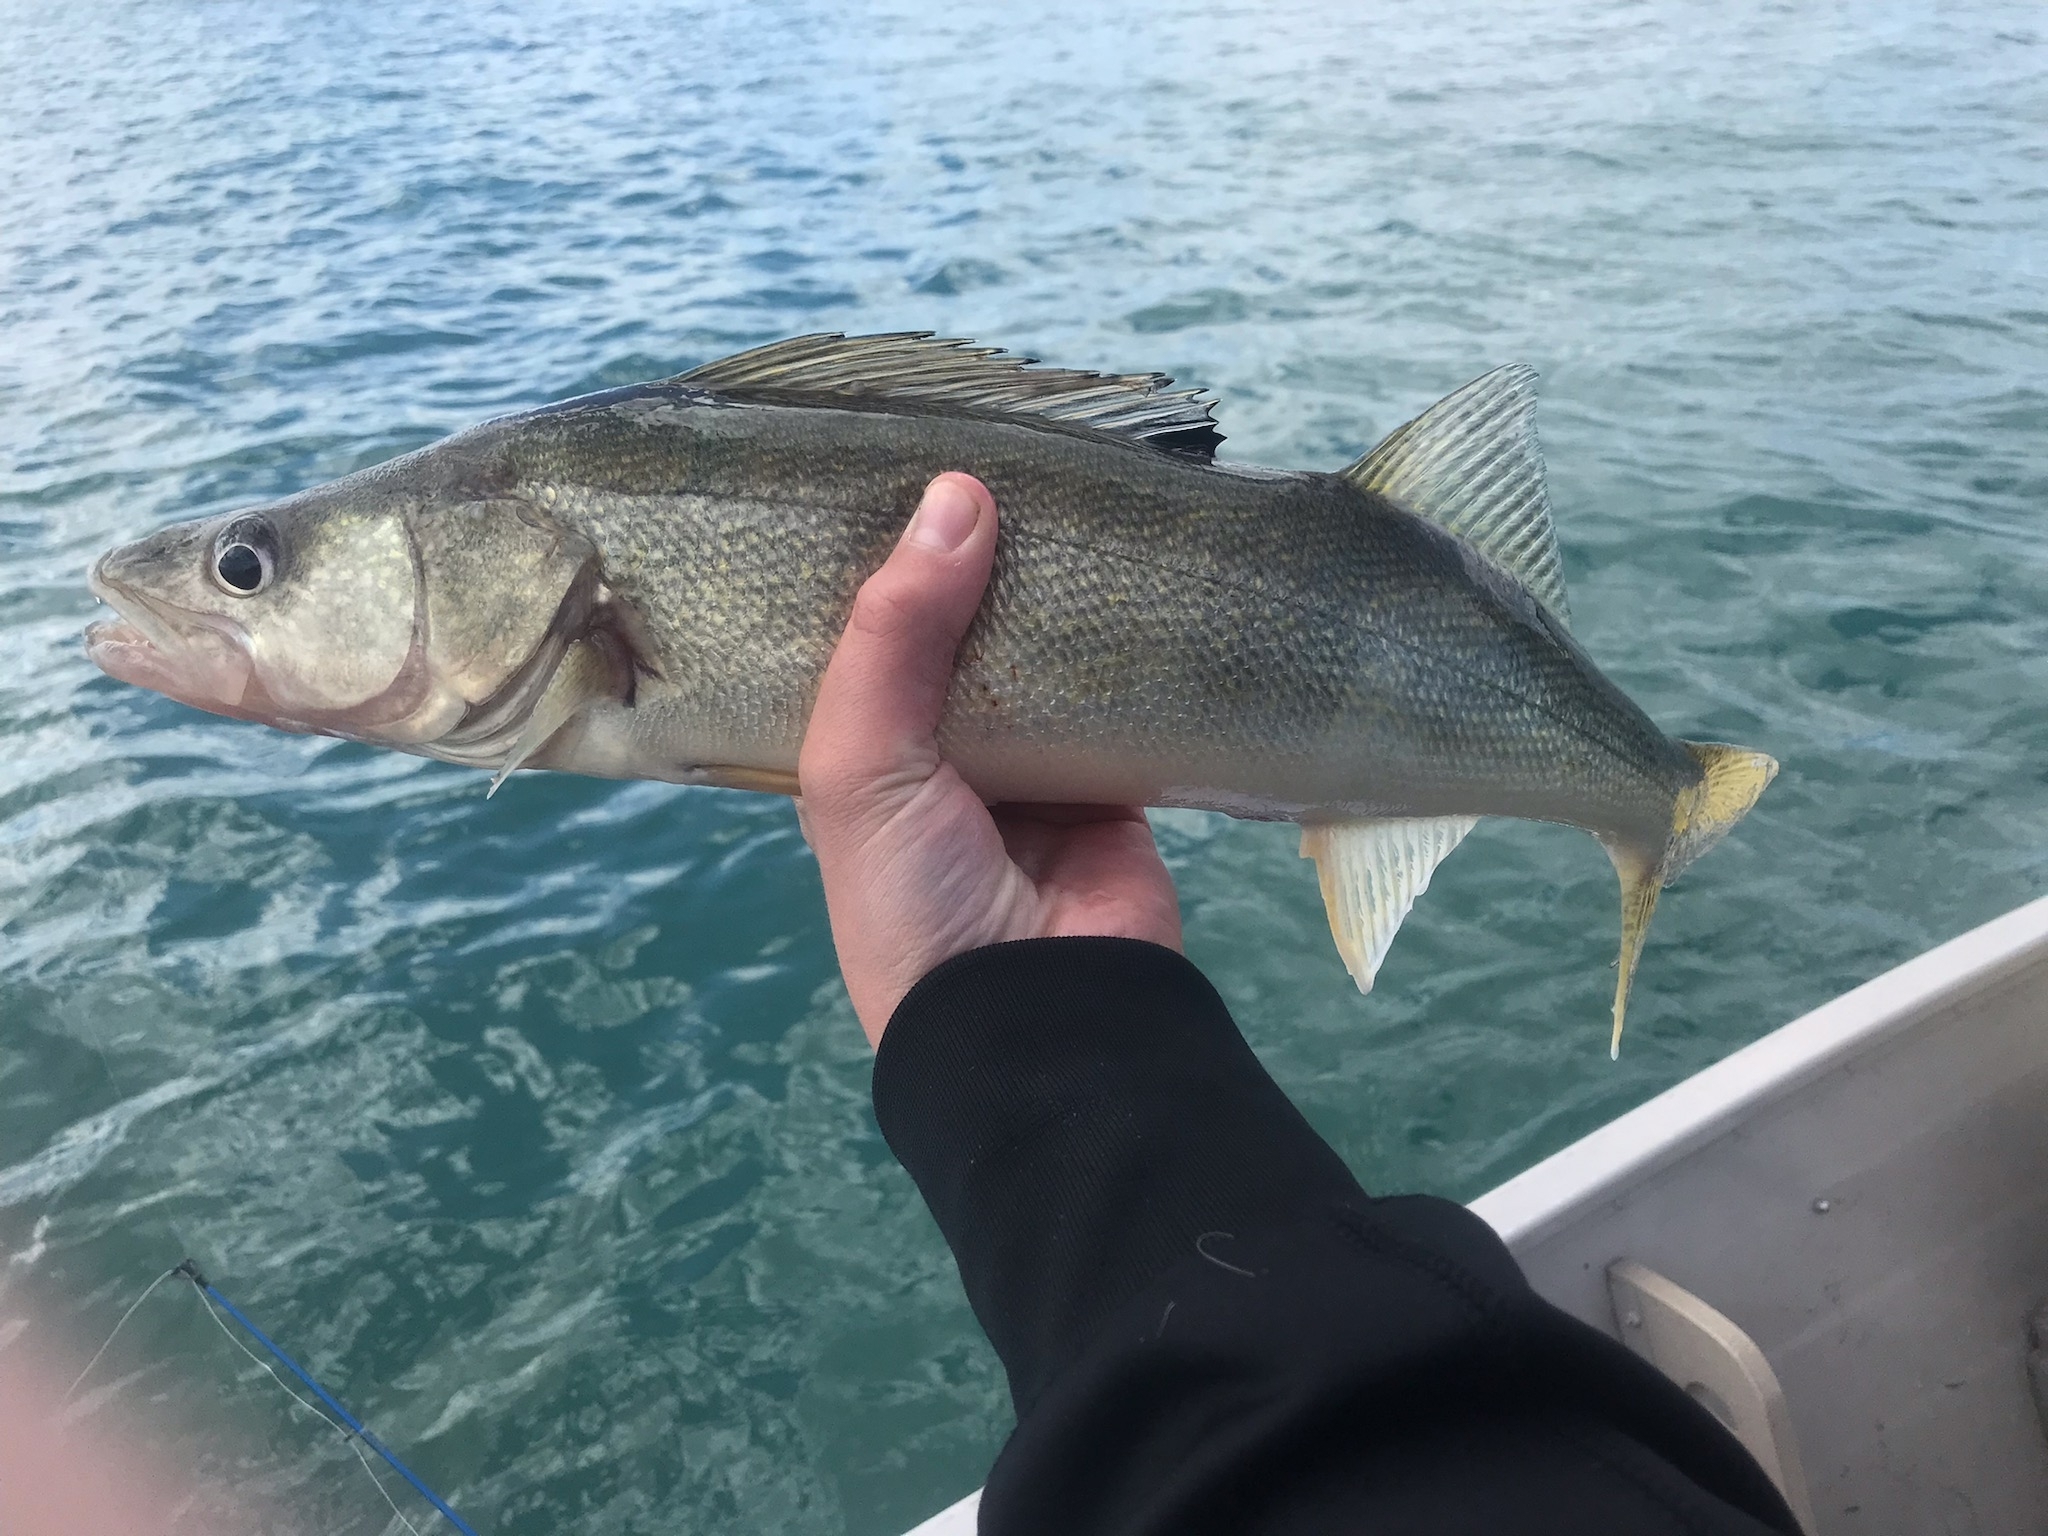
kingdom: Animalia
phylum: Chordata
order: Perciformes
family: Percidae
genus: Sander
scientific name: Sander vitreus
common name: Walleye
